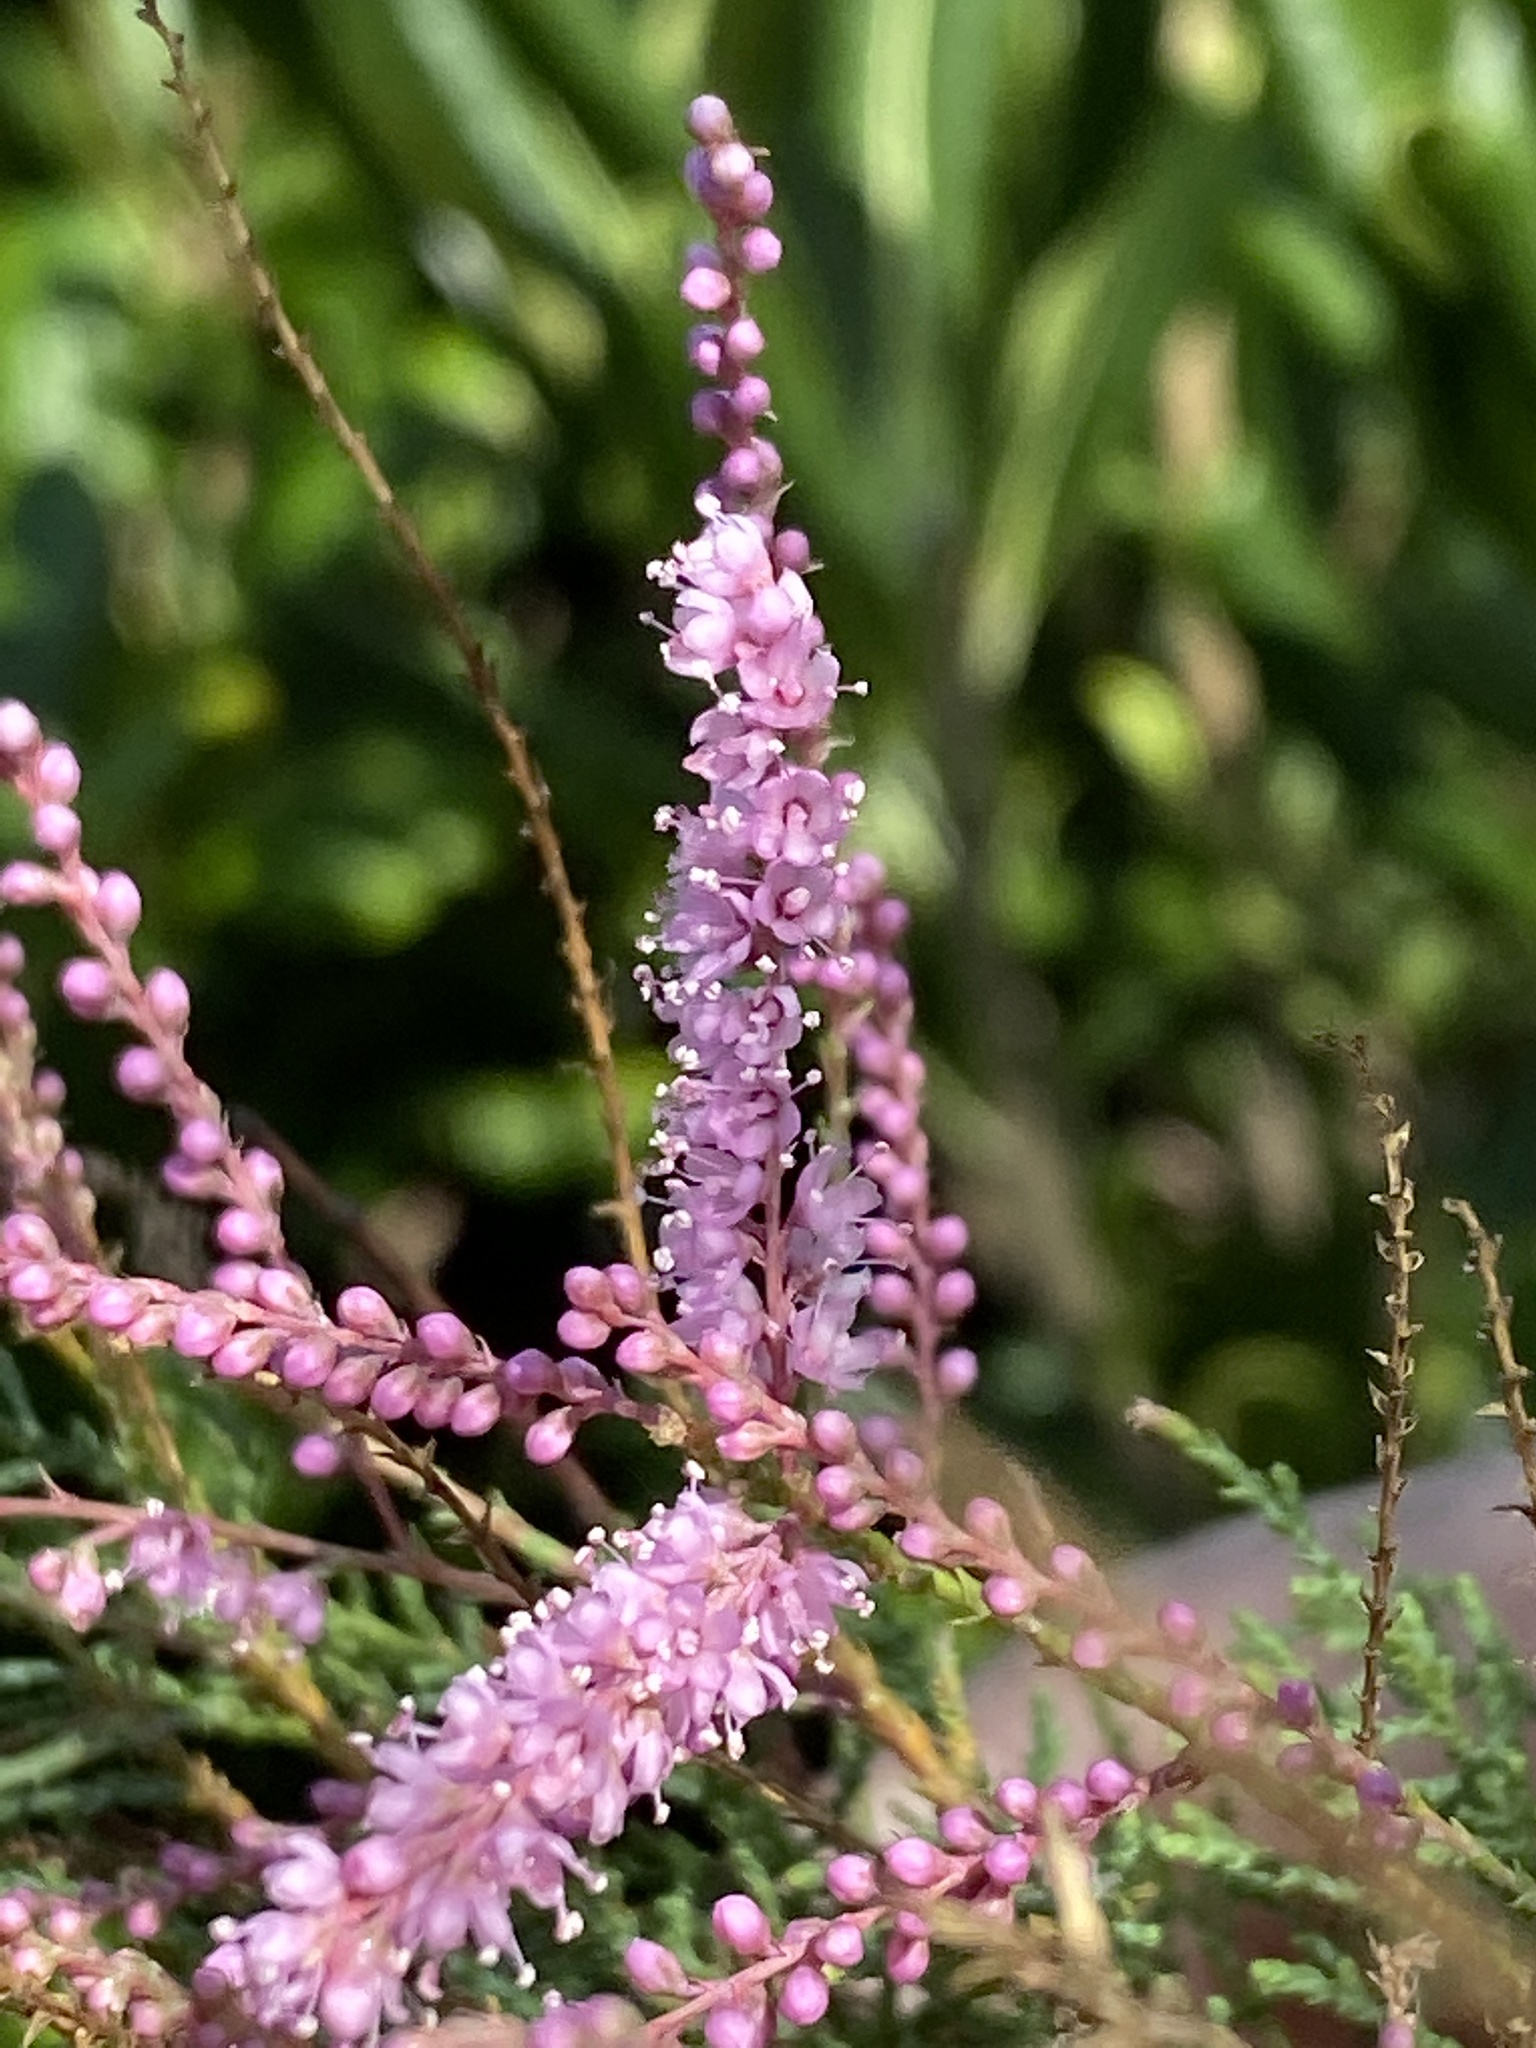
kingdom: Plantae
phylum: Tracheophyta
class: Magnoliopsida
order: Caryophyllales
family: Tamaricaceae
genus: Tamarix
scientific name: Tamarix
